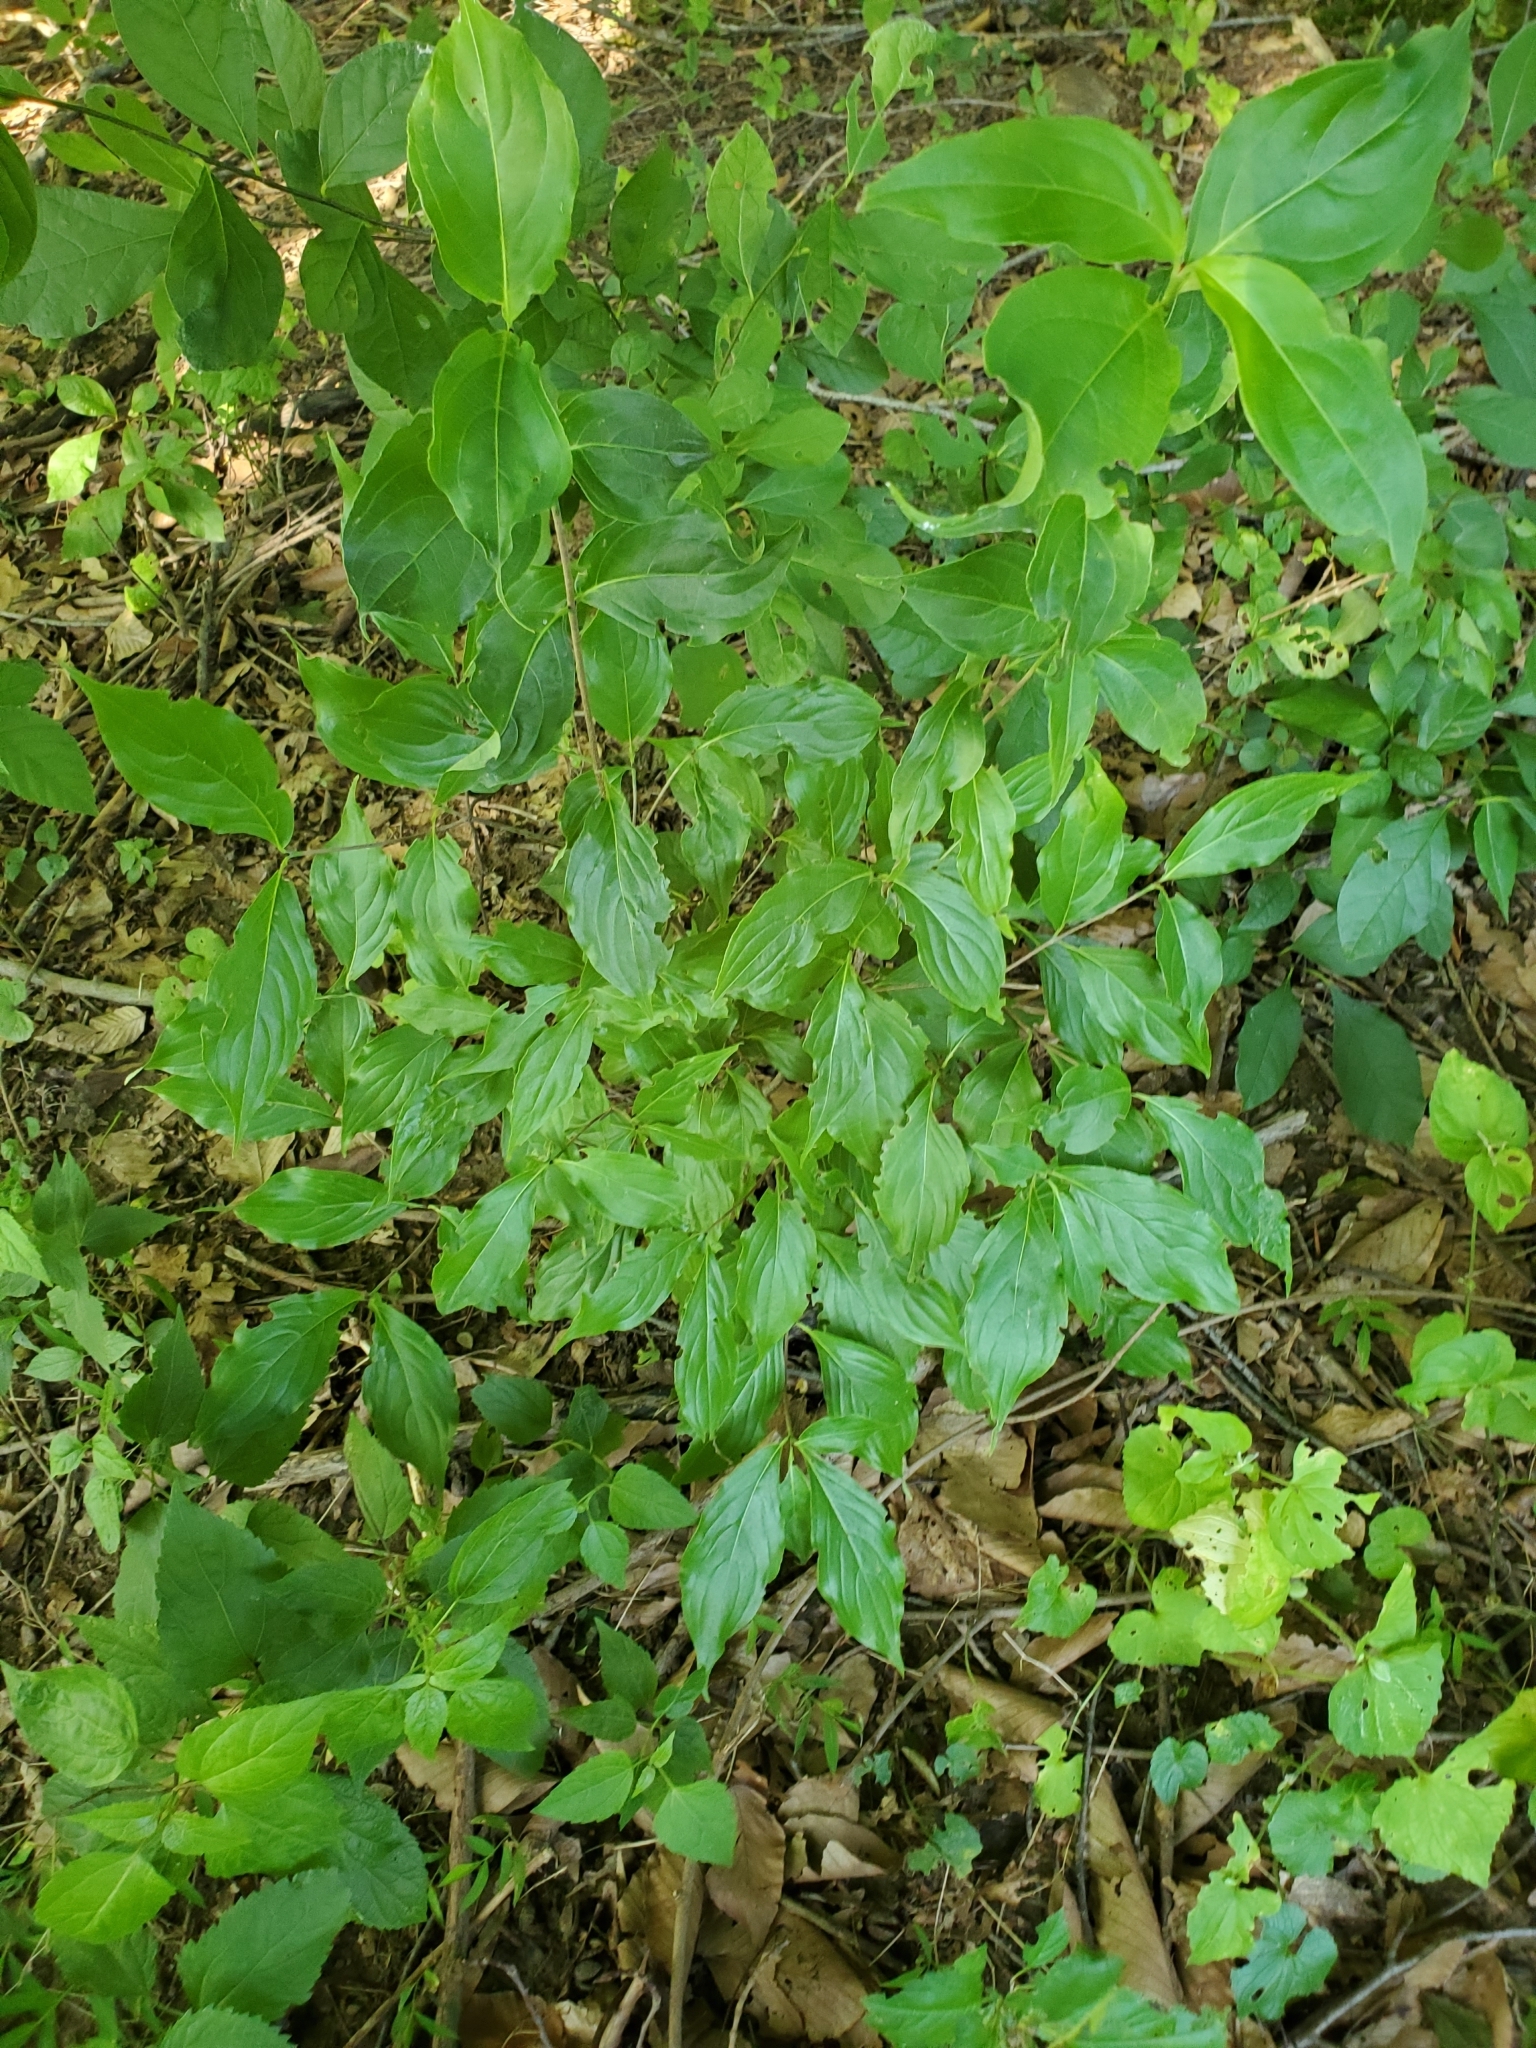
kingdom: Plantae
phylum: Tracheophyta
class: Magnoliopsida
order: Cornales
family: Cornaceae
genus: Cornus
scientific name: Cornus kousa
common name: Japanese dogwood
